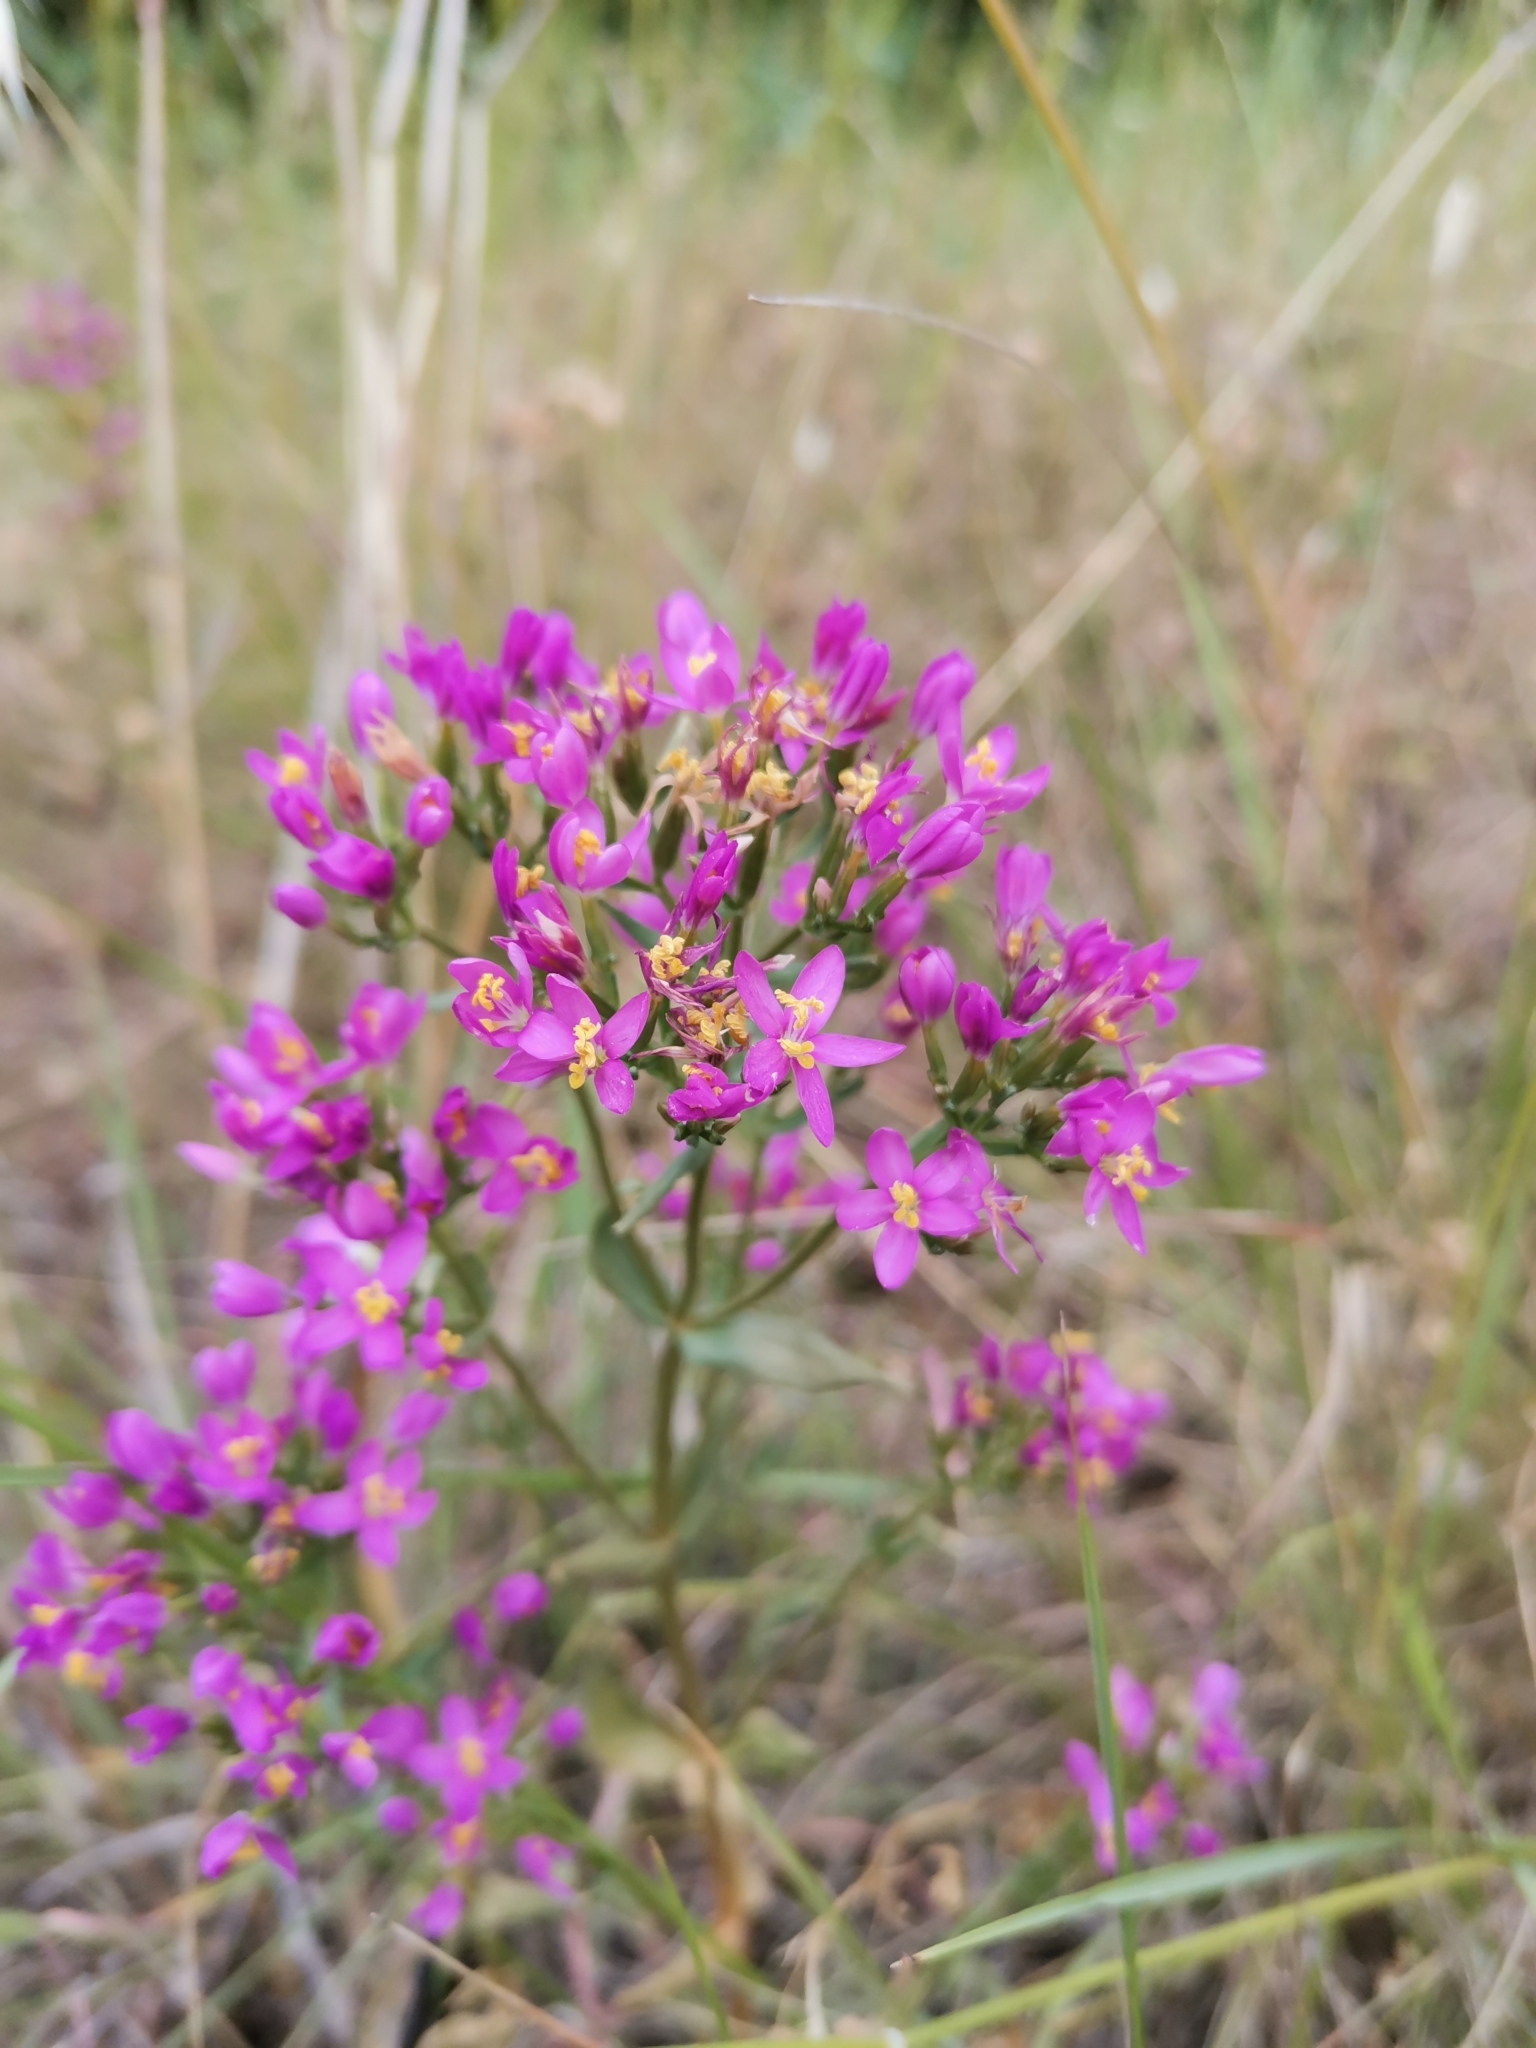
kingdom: Plantae
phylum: Tracheophyta
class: Magnoliopsida
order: Gentianales
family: Gentianaceae
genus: Centaurium
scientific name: Centaurium erythraea
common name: Common centaury
